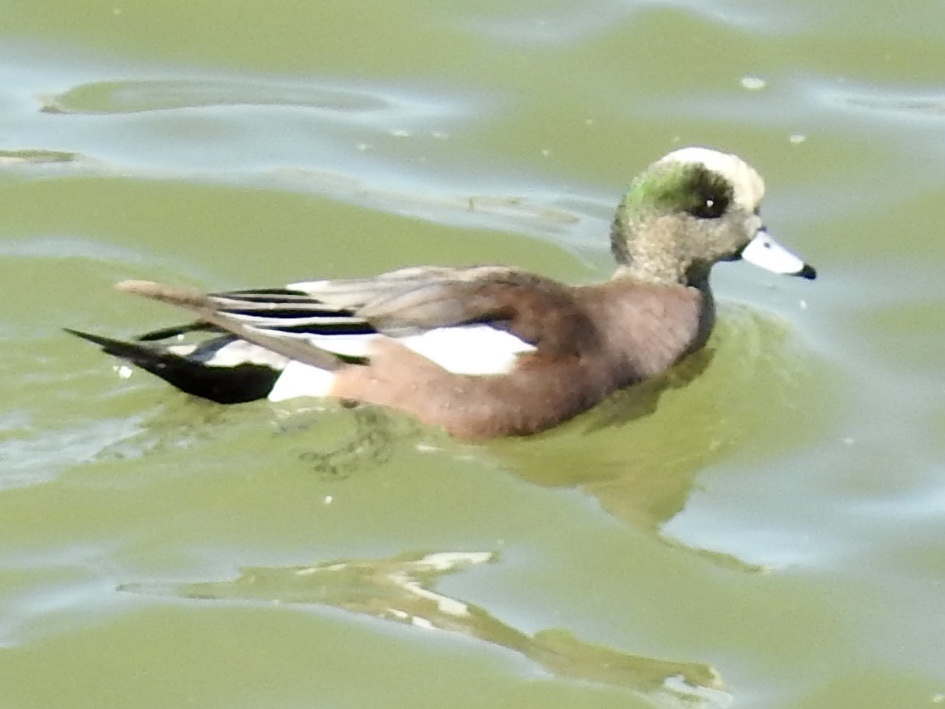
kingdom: Animalia
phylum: Chordata
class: Aves
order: Anseriformes
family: Anatidae
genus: Mareca
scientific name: Mareca americana
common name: American wigeon
